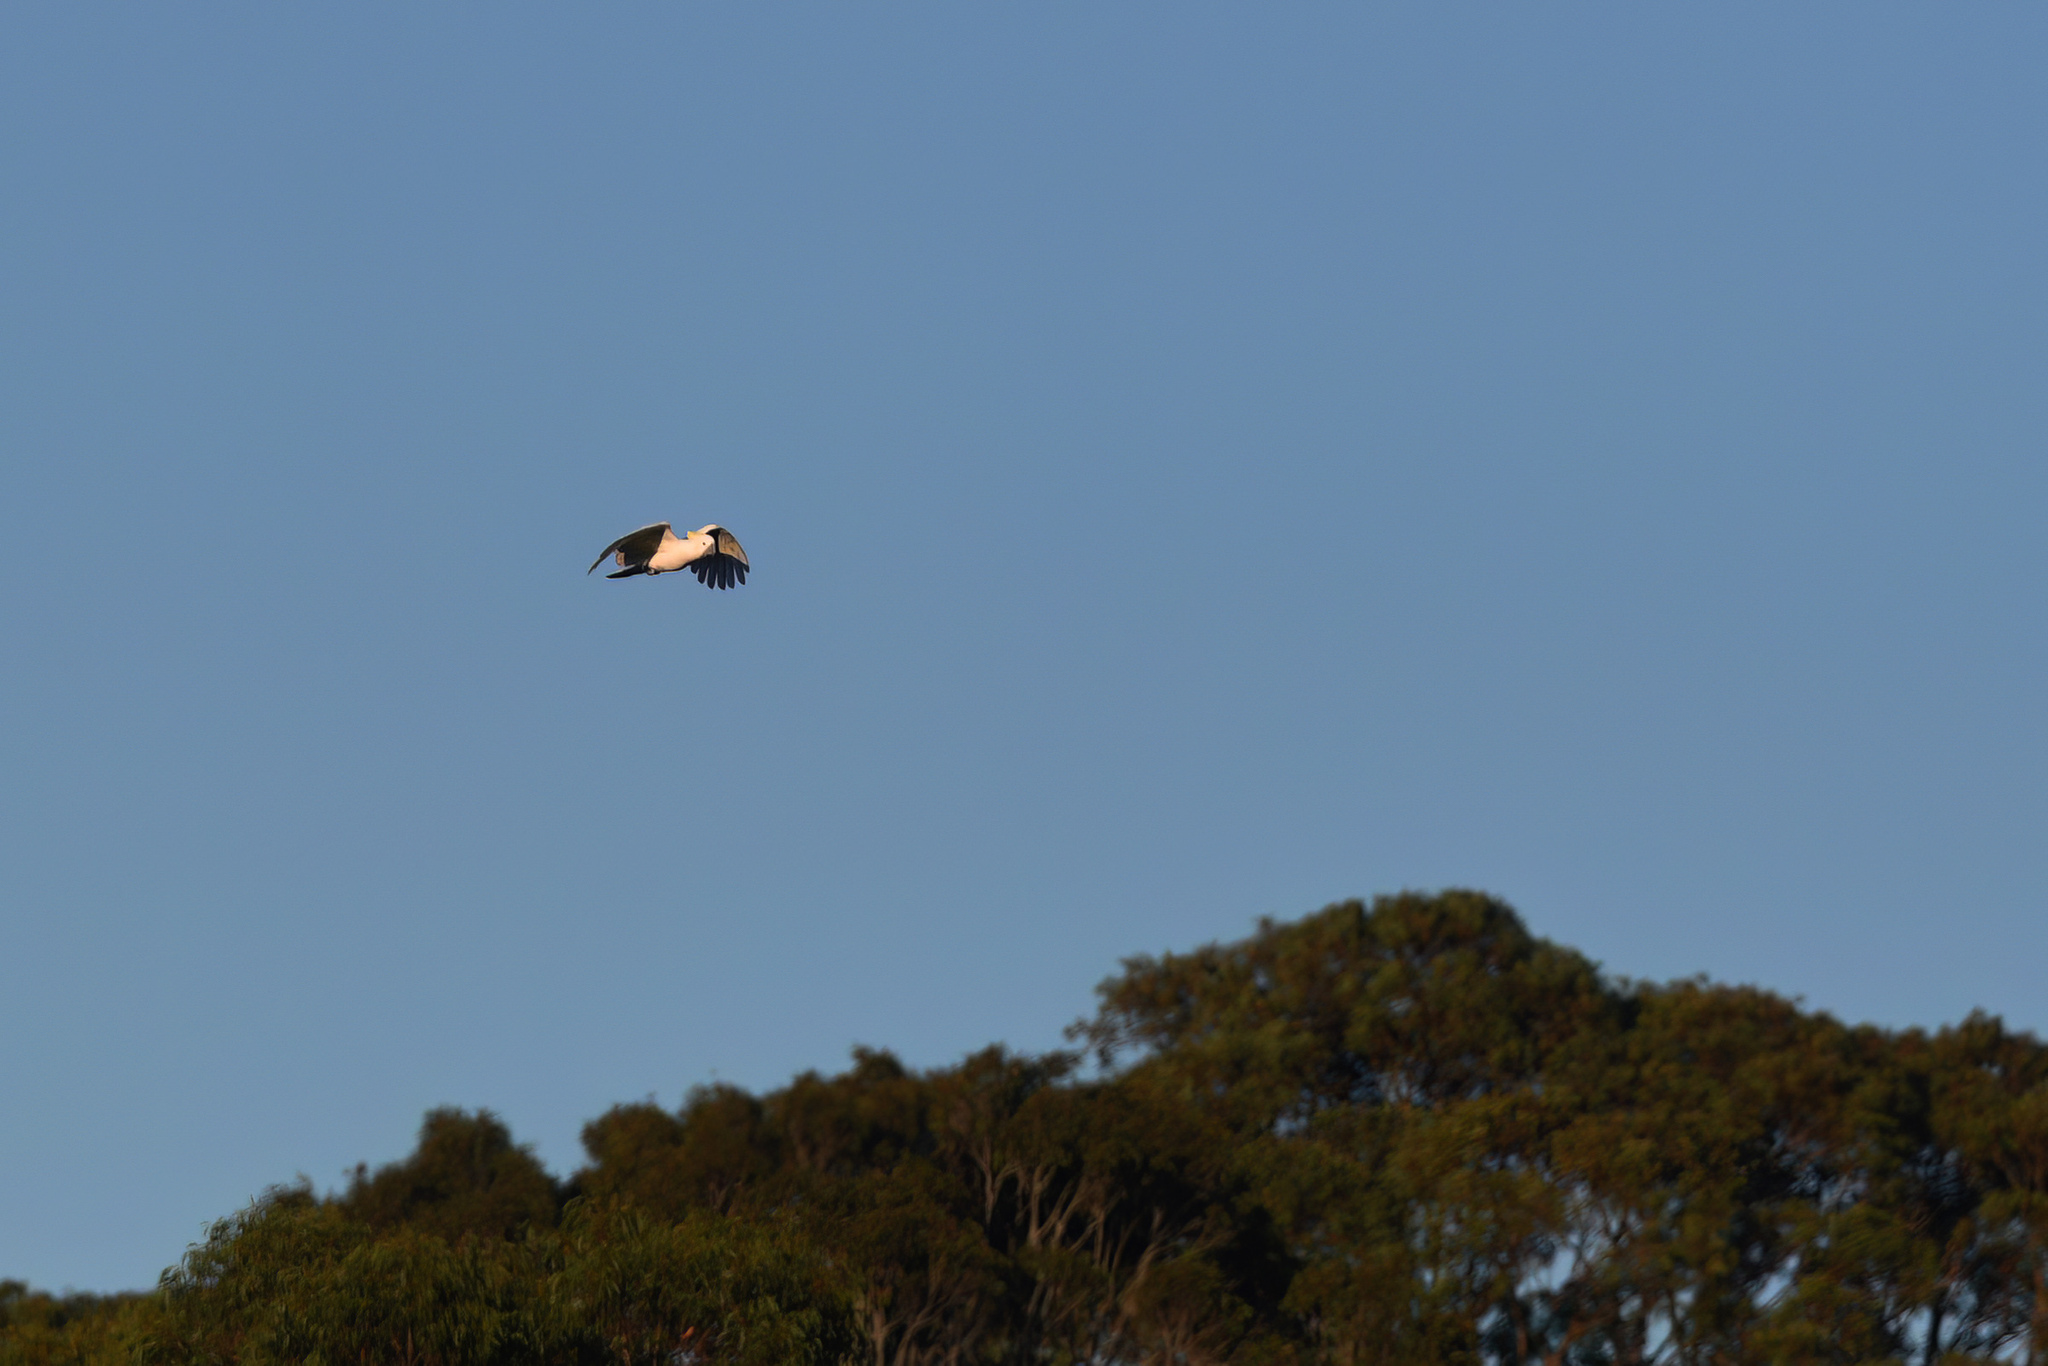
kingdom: Animalia
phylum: Chordata
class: Aves
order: Psittaciformes
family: Psittacidae
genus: Cacatua
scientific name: Cacatua galerita
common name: Sulphur-crested cockatoo
